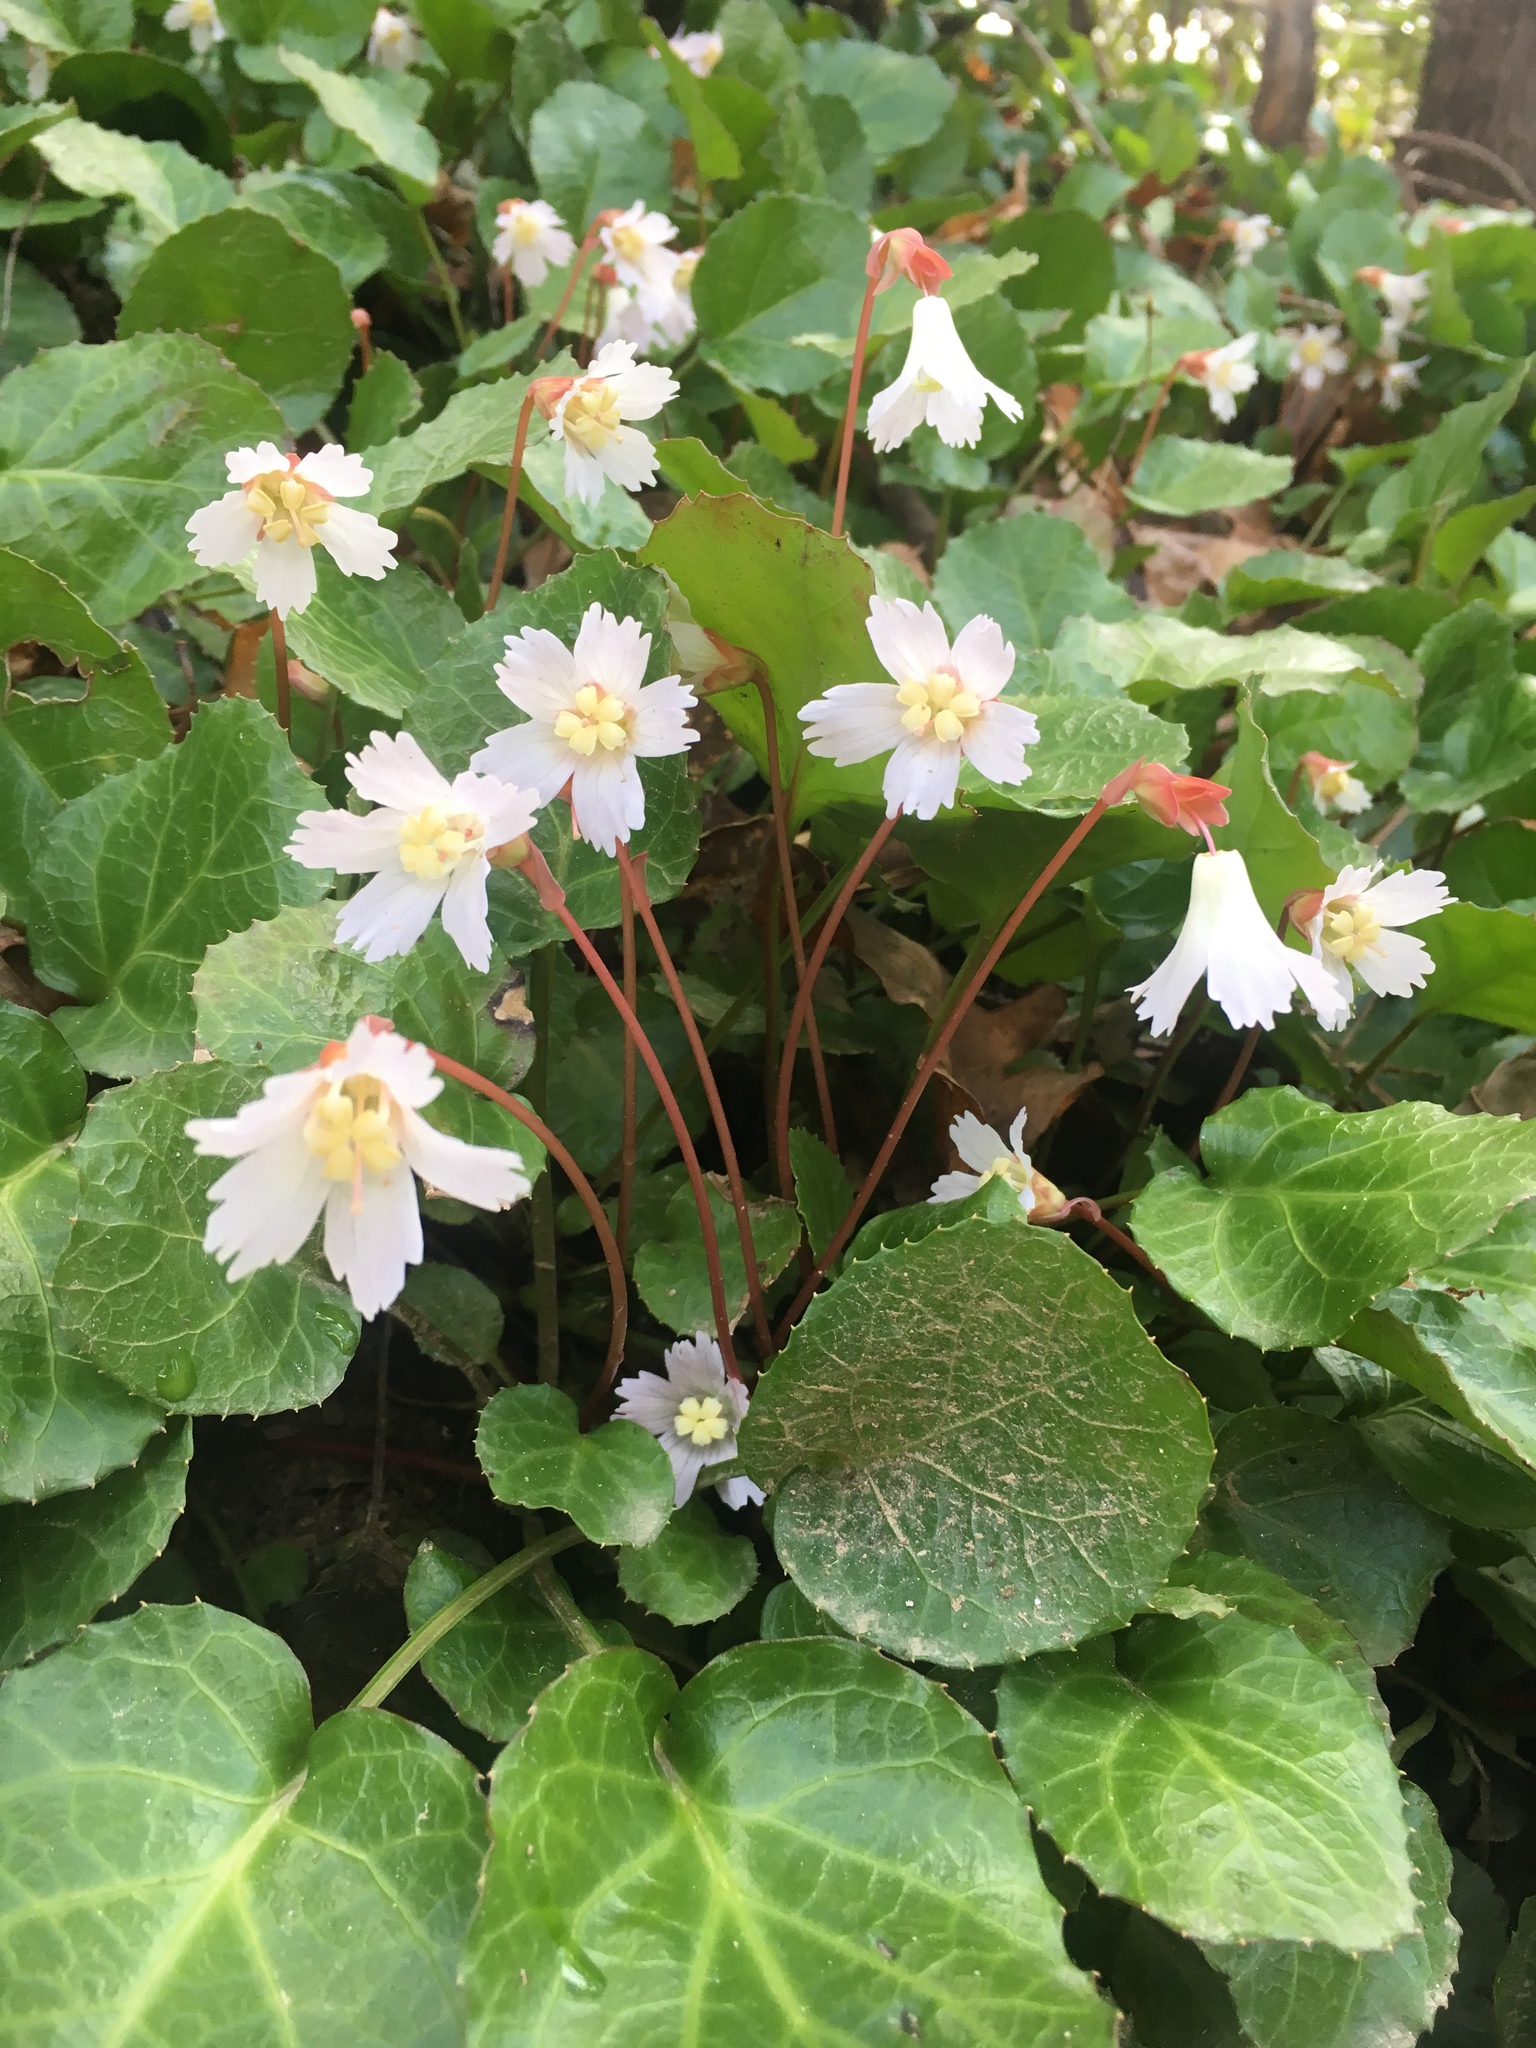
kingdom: Plantae
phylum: Tracheophyta
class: Magnoliopsida
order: Ericales
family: Diapensiaceae
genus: Shortia
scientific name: Shortia galacifolia
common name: Shortia
